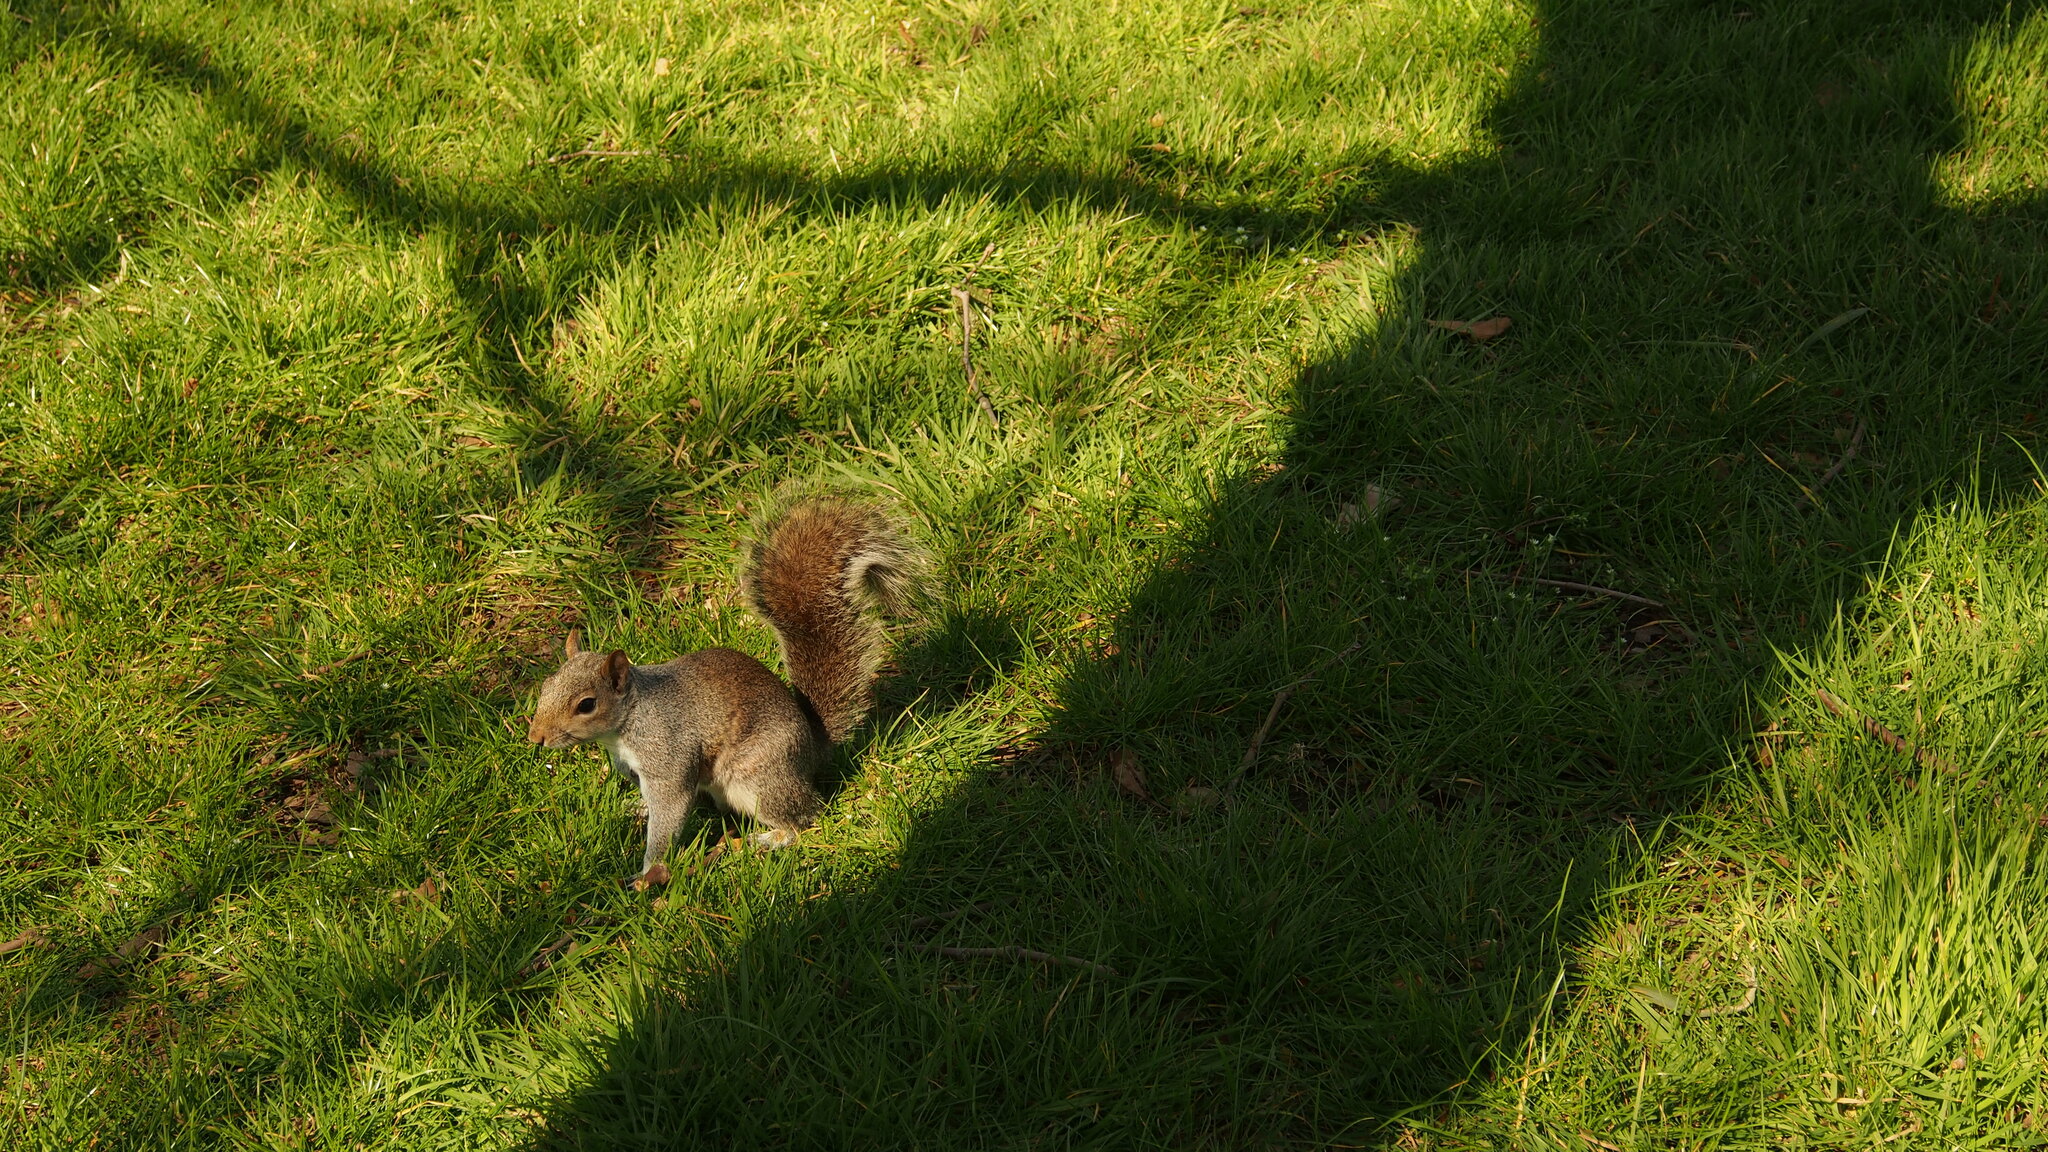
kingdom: Animalia
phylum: Chordata
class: Mammalia
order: Rodentia
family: Sciuridae
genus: Sciurus
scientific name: Sciurus carolinensis
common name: Eastern gray squirrel
